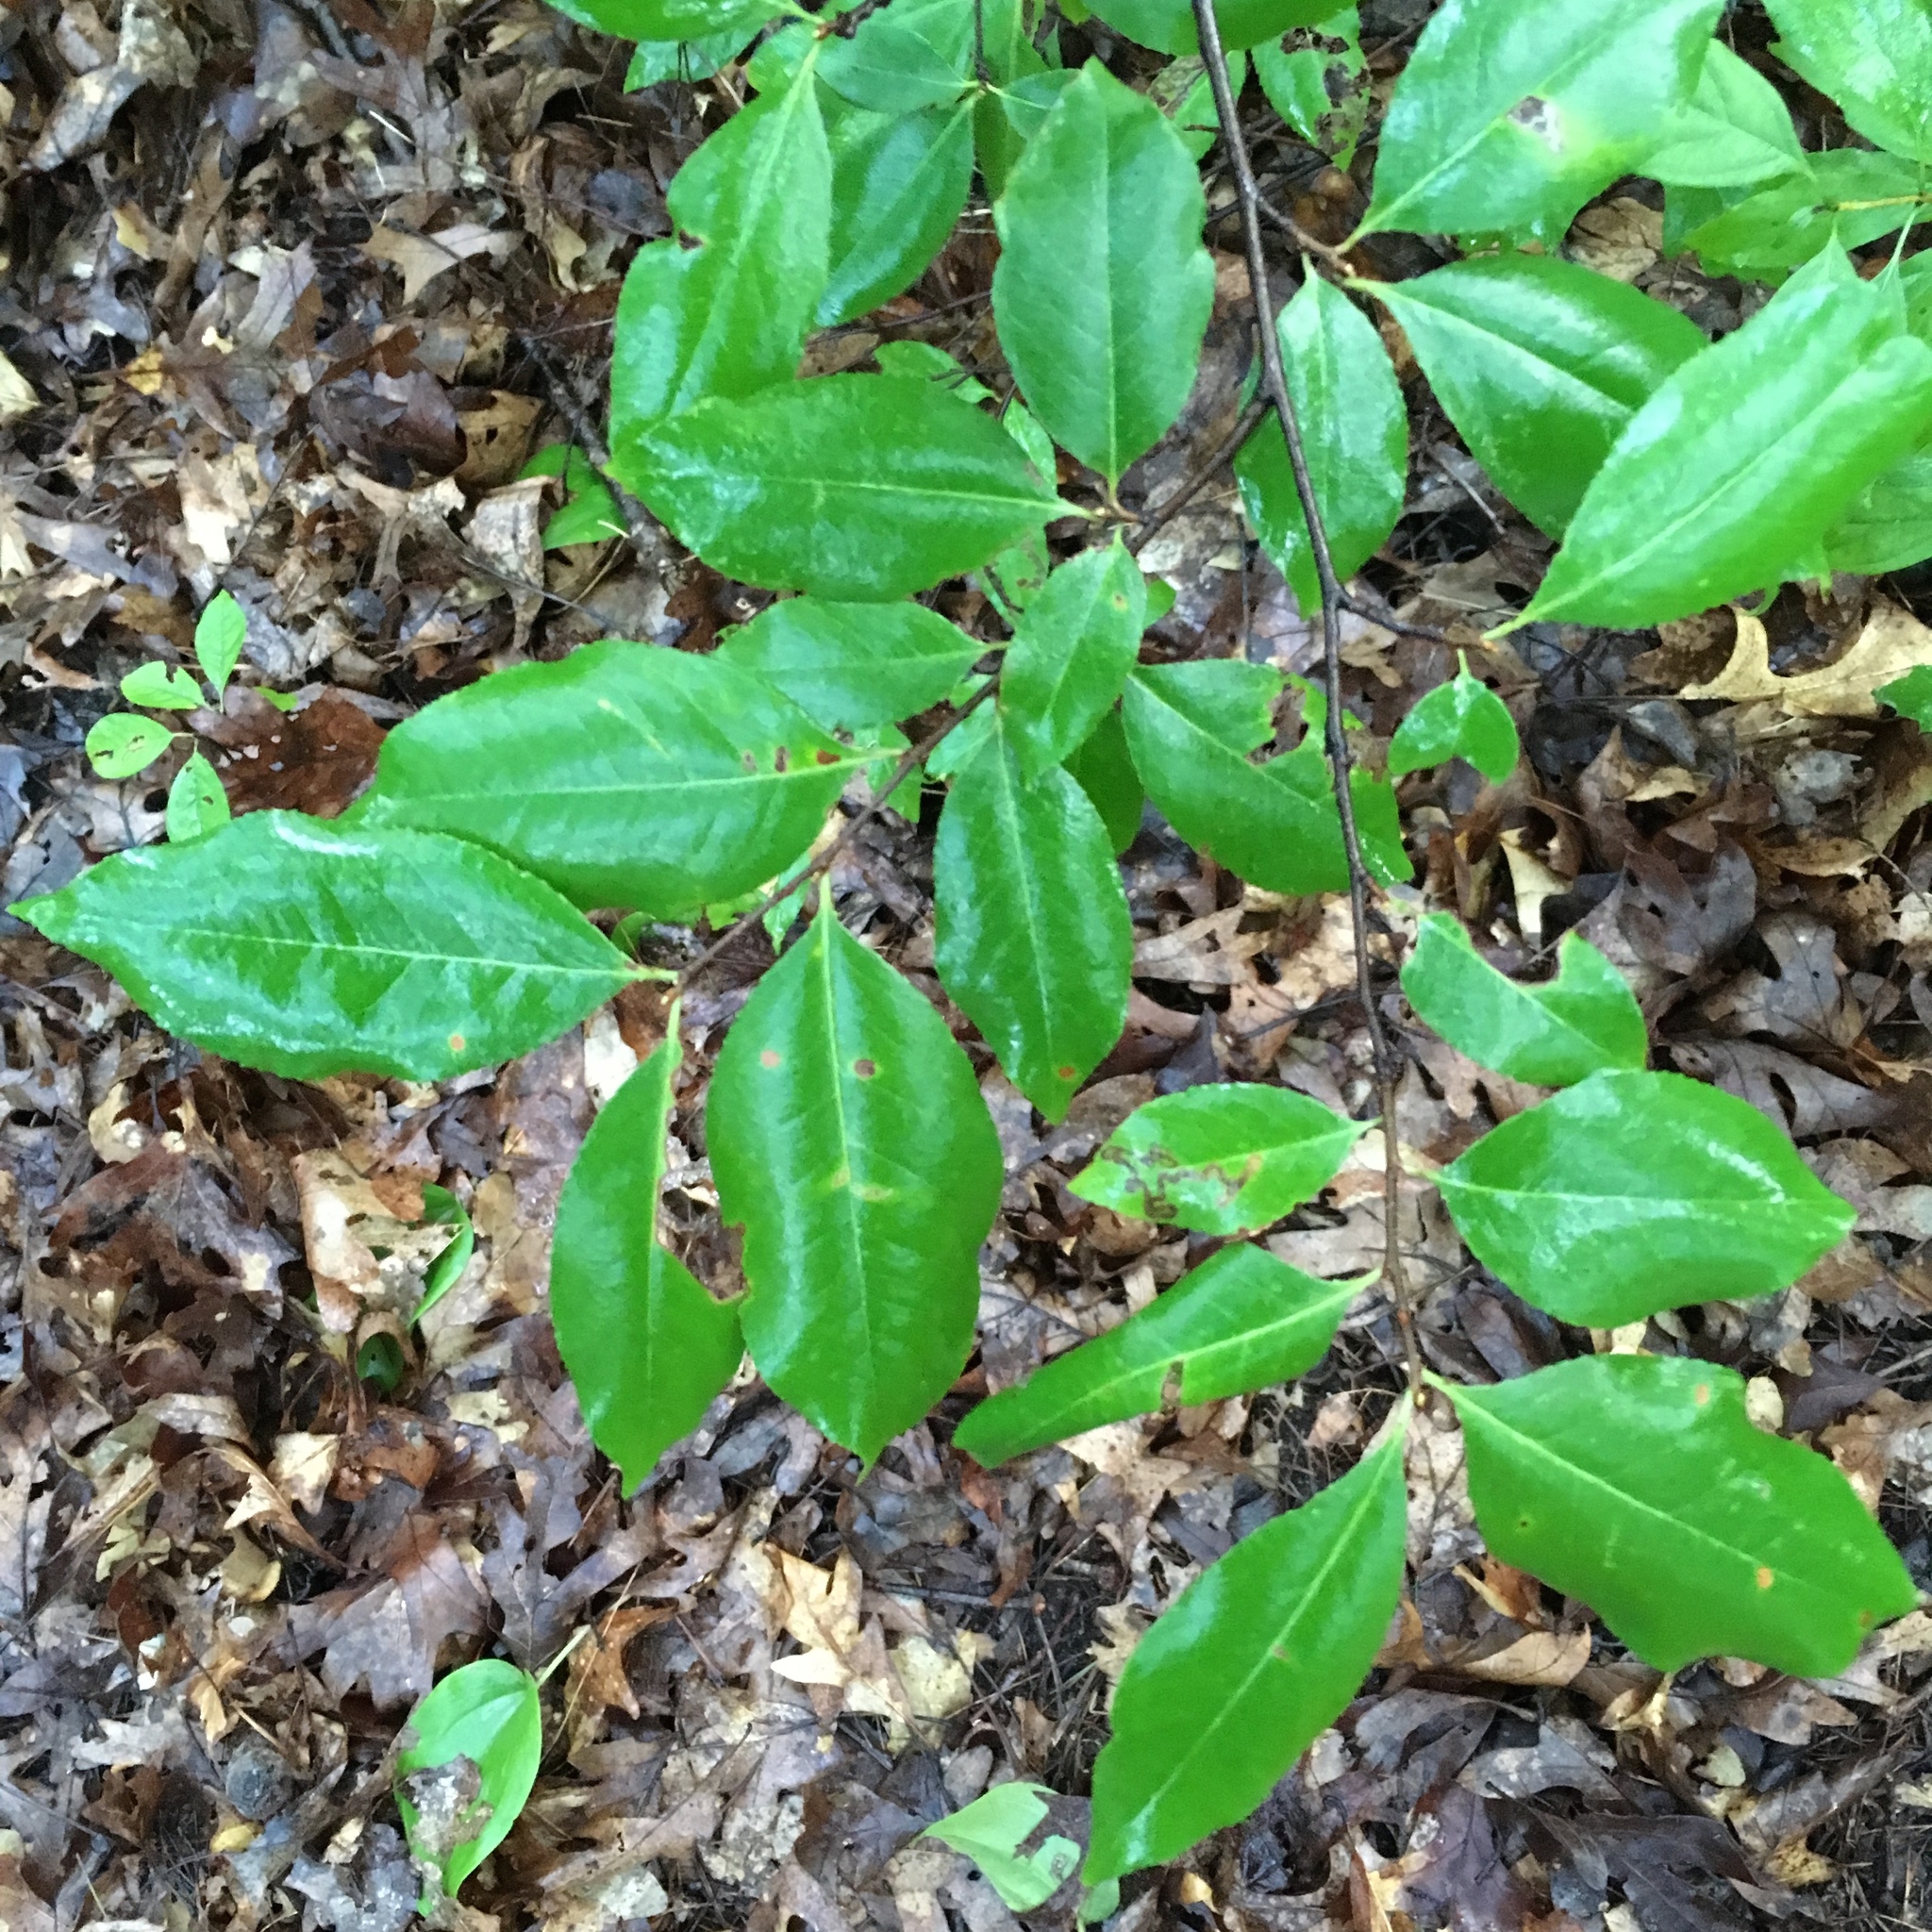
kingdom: Plantae
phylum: Tracheophyta
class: Magnoliopsida
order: Rosales
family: Rosaceae
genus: Prunus
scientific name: Prunus serotina
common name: Black cherry
